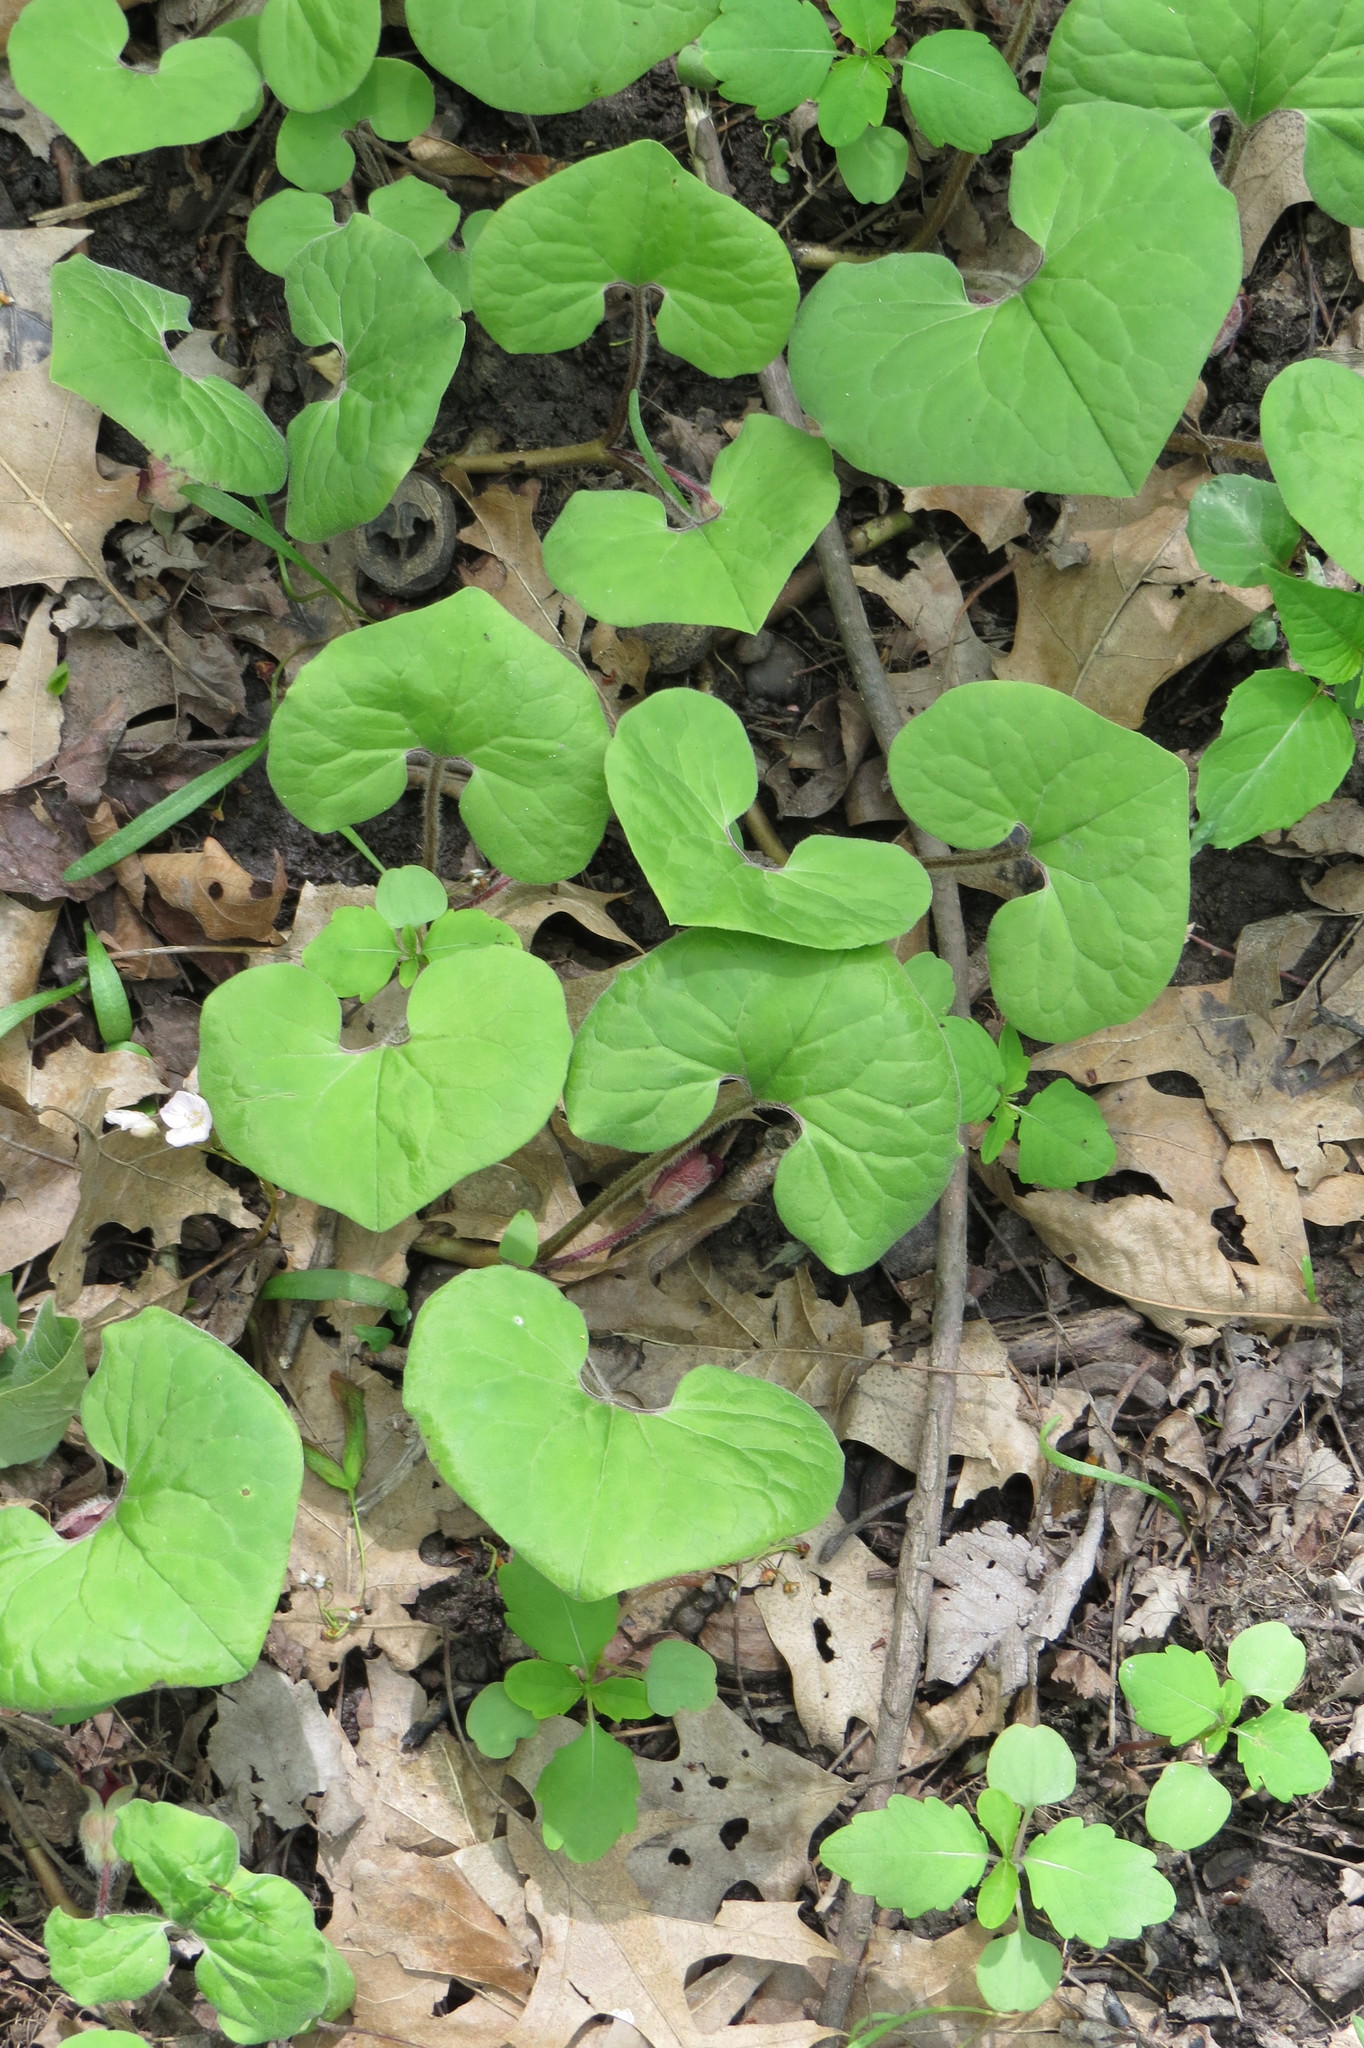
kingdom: Plantae
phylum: Tracheophyta
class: Magnoliopsida
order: Piperales
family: Aristolochiaceae
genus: Asarum
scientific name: Asarum canadense
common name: Wild ginger
